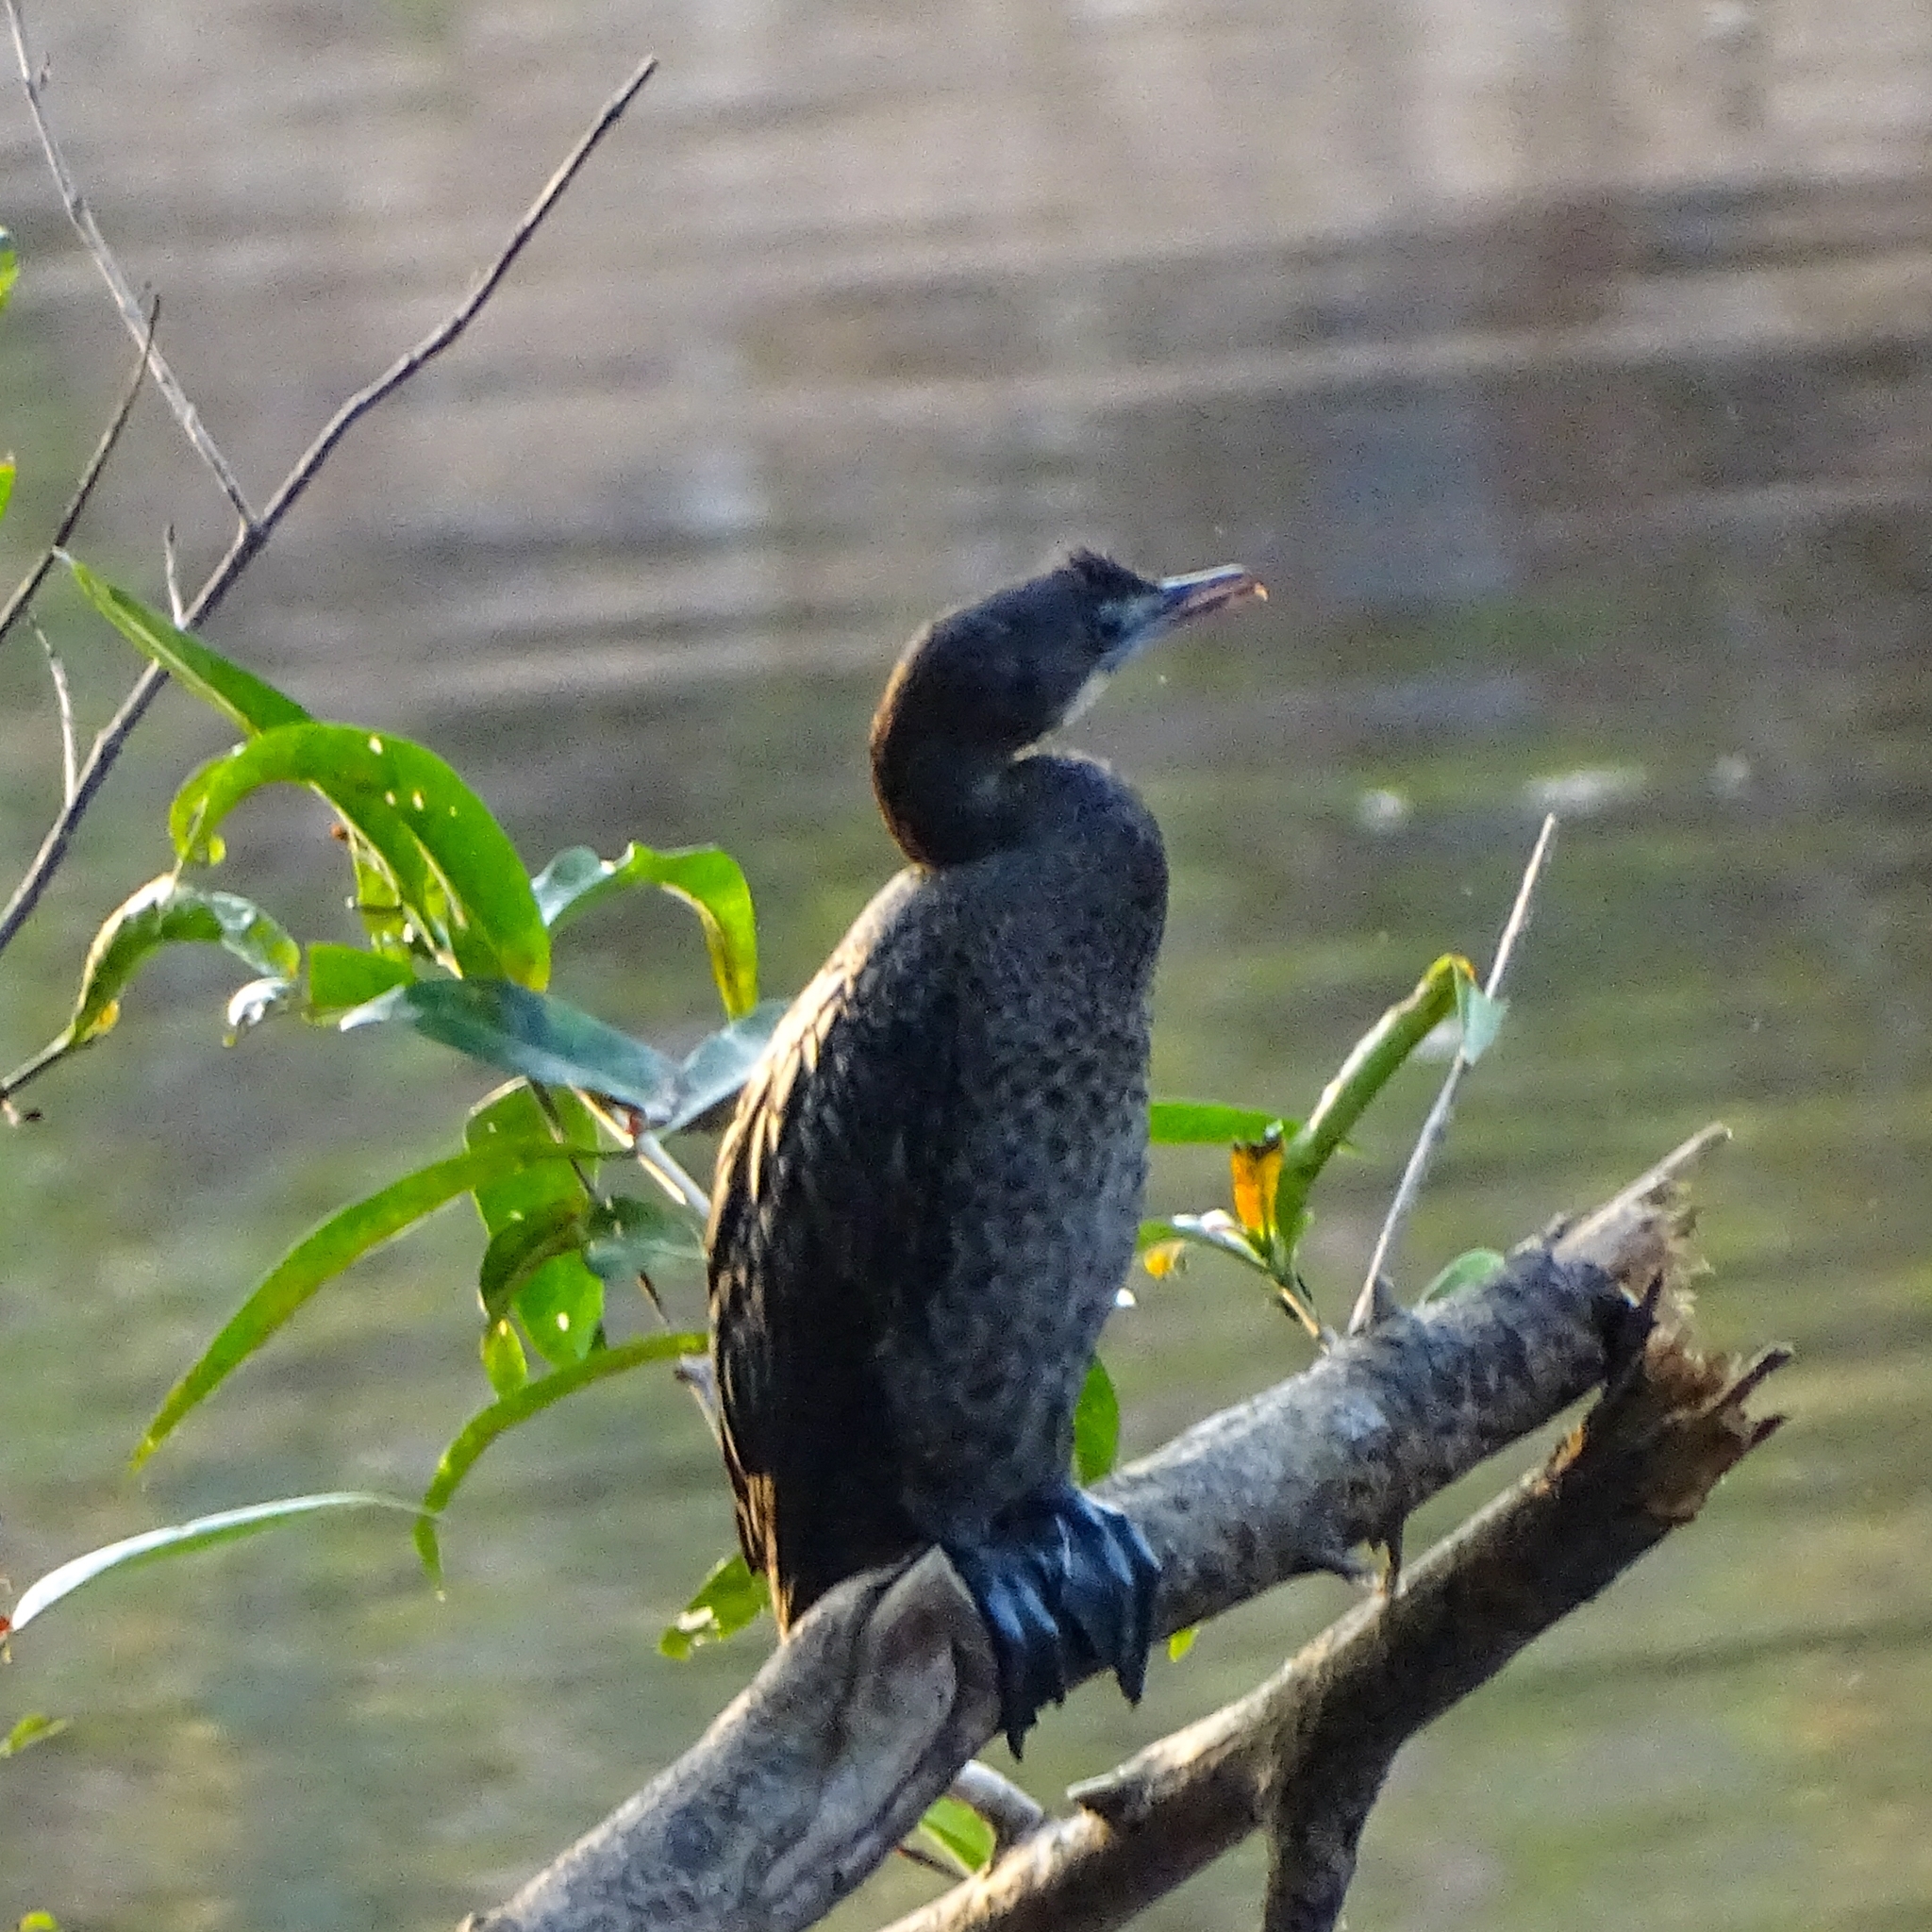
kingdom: Animalia
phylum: Chordata
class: Aves
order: Suliformes
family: Phalacrocoracidae
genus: Microcarbo
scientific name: Microcarbo niger
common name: Little cormorant
